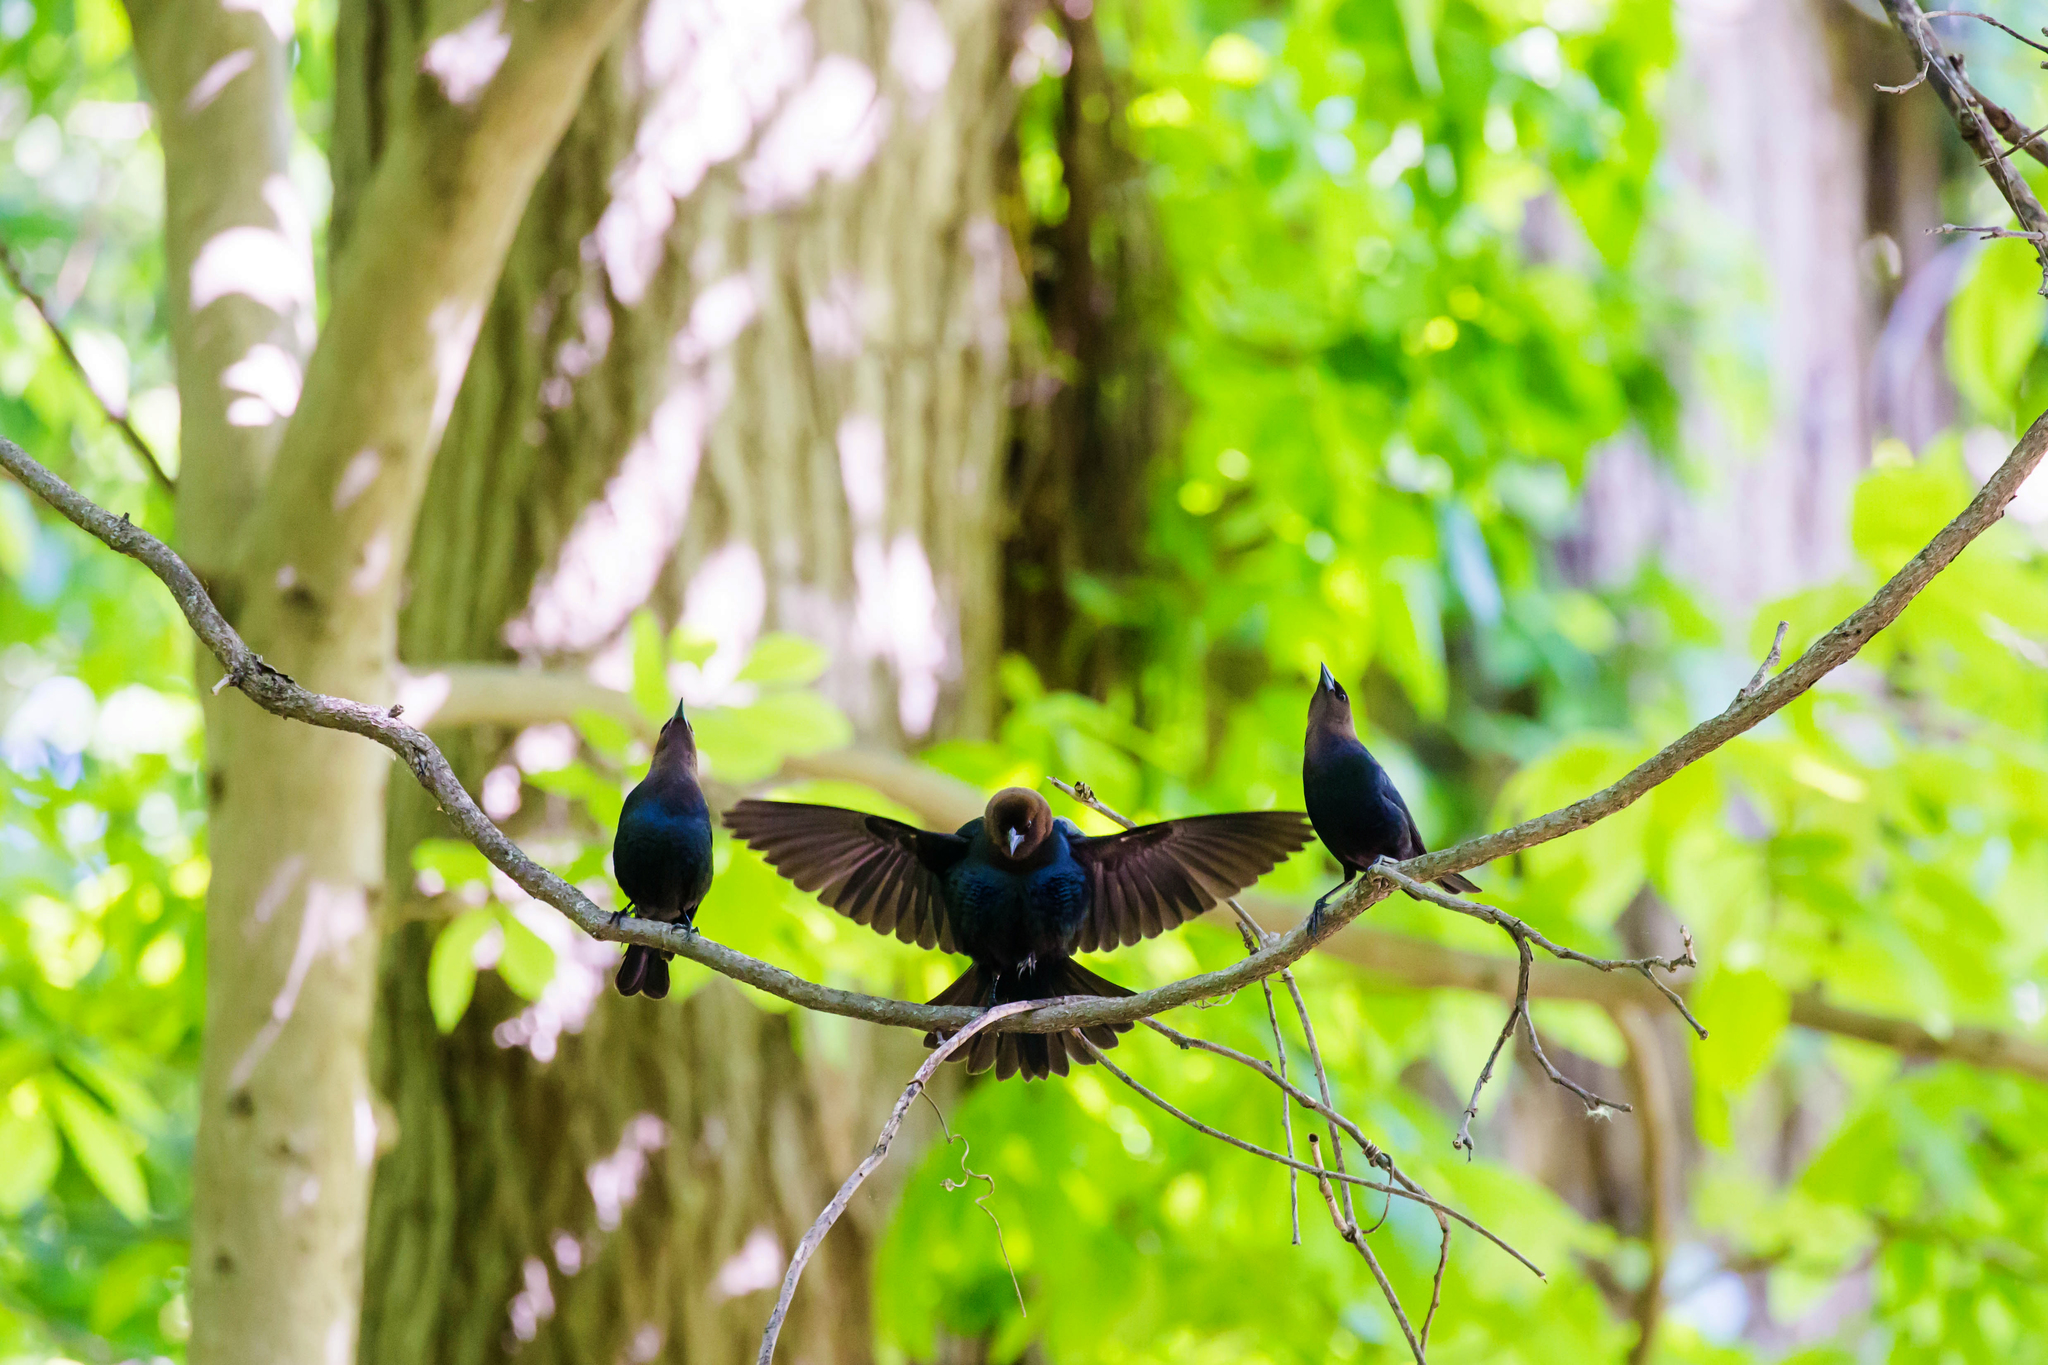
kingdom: Animalia
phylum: Chordata
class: Aves
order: Passeriformes
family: Icteridae
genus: Molothrus
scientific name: Molothrus ater
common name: Brown-headed cowbird
